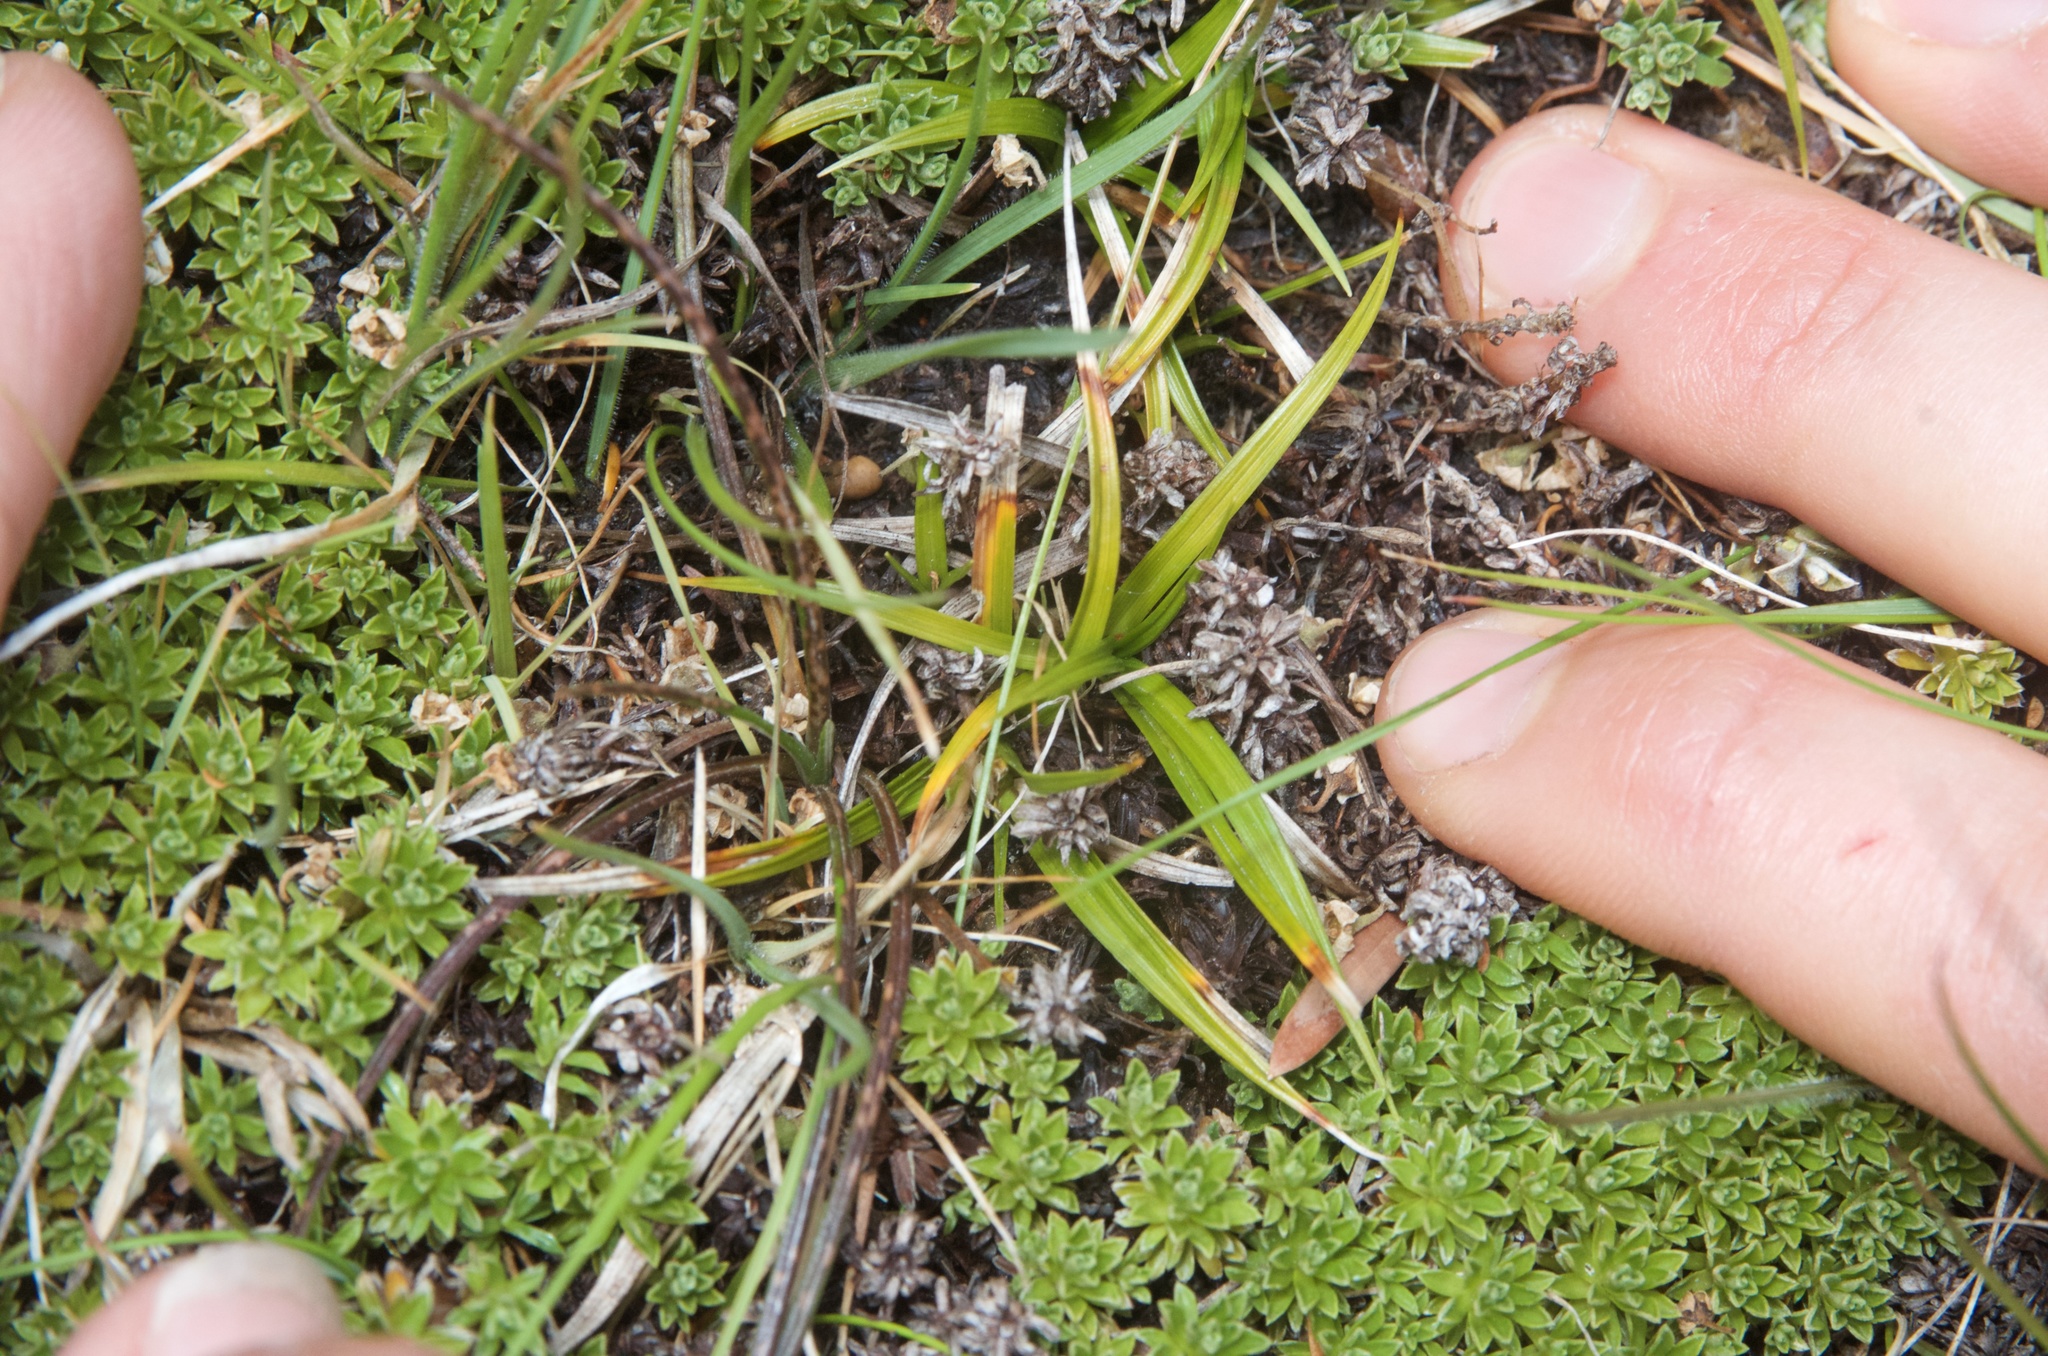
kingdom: Plantae
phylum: Tracheophyta
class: Liliopsida
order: Poales
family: Cyperaceae
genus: Carex
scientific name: Carex breviculmis
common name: Asian shortstem sedge
